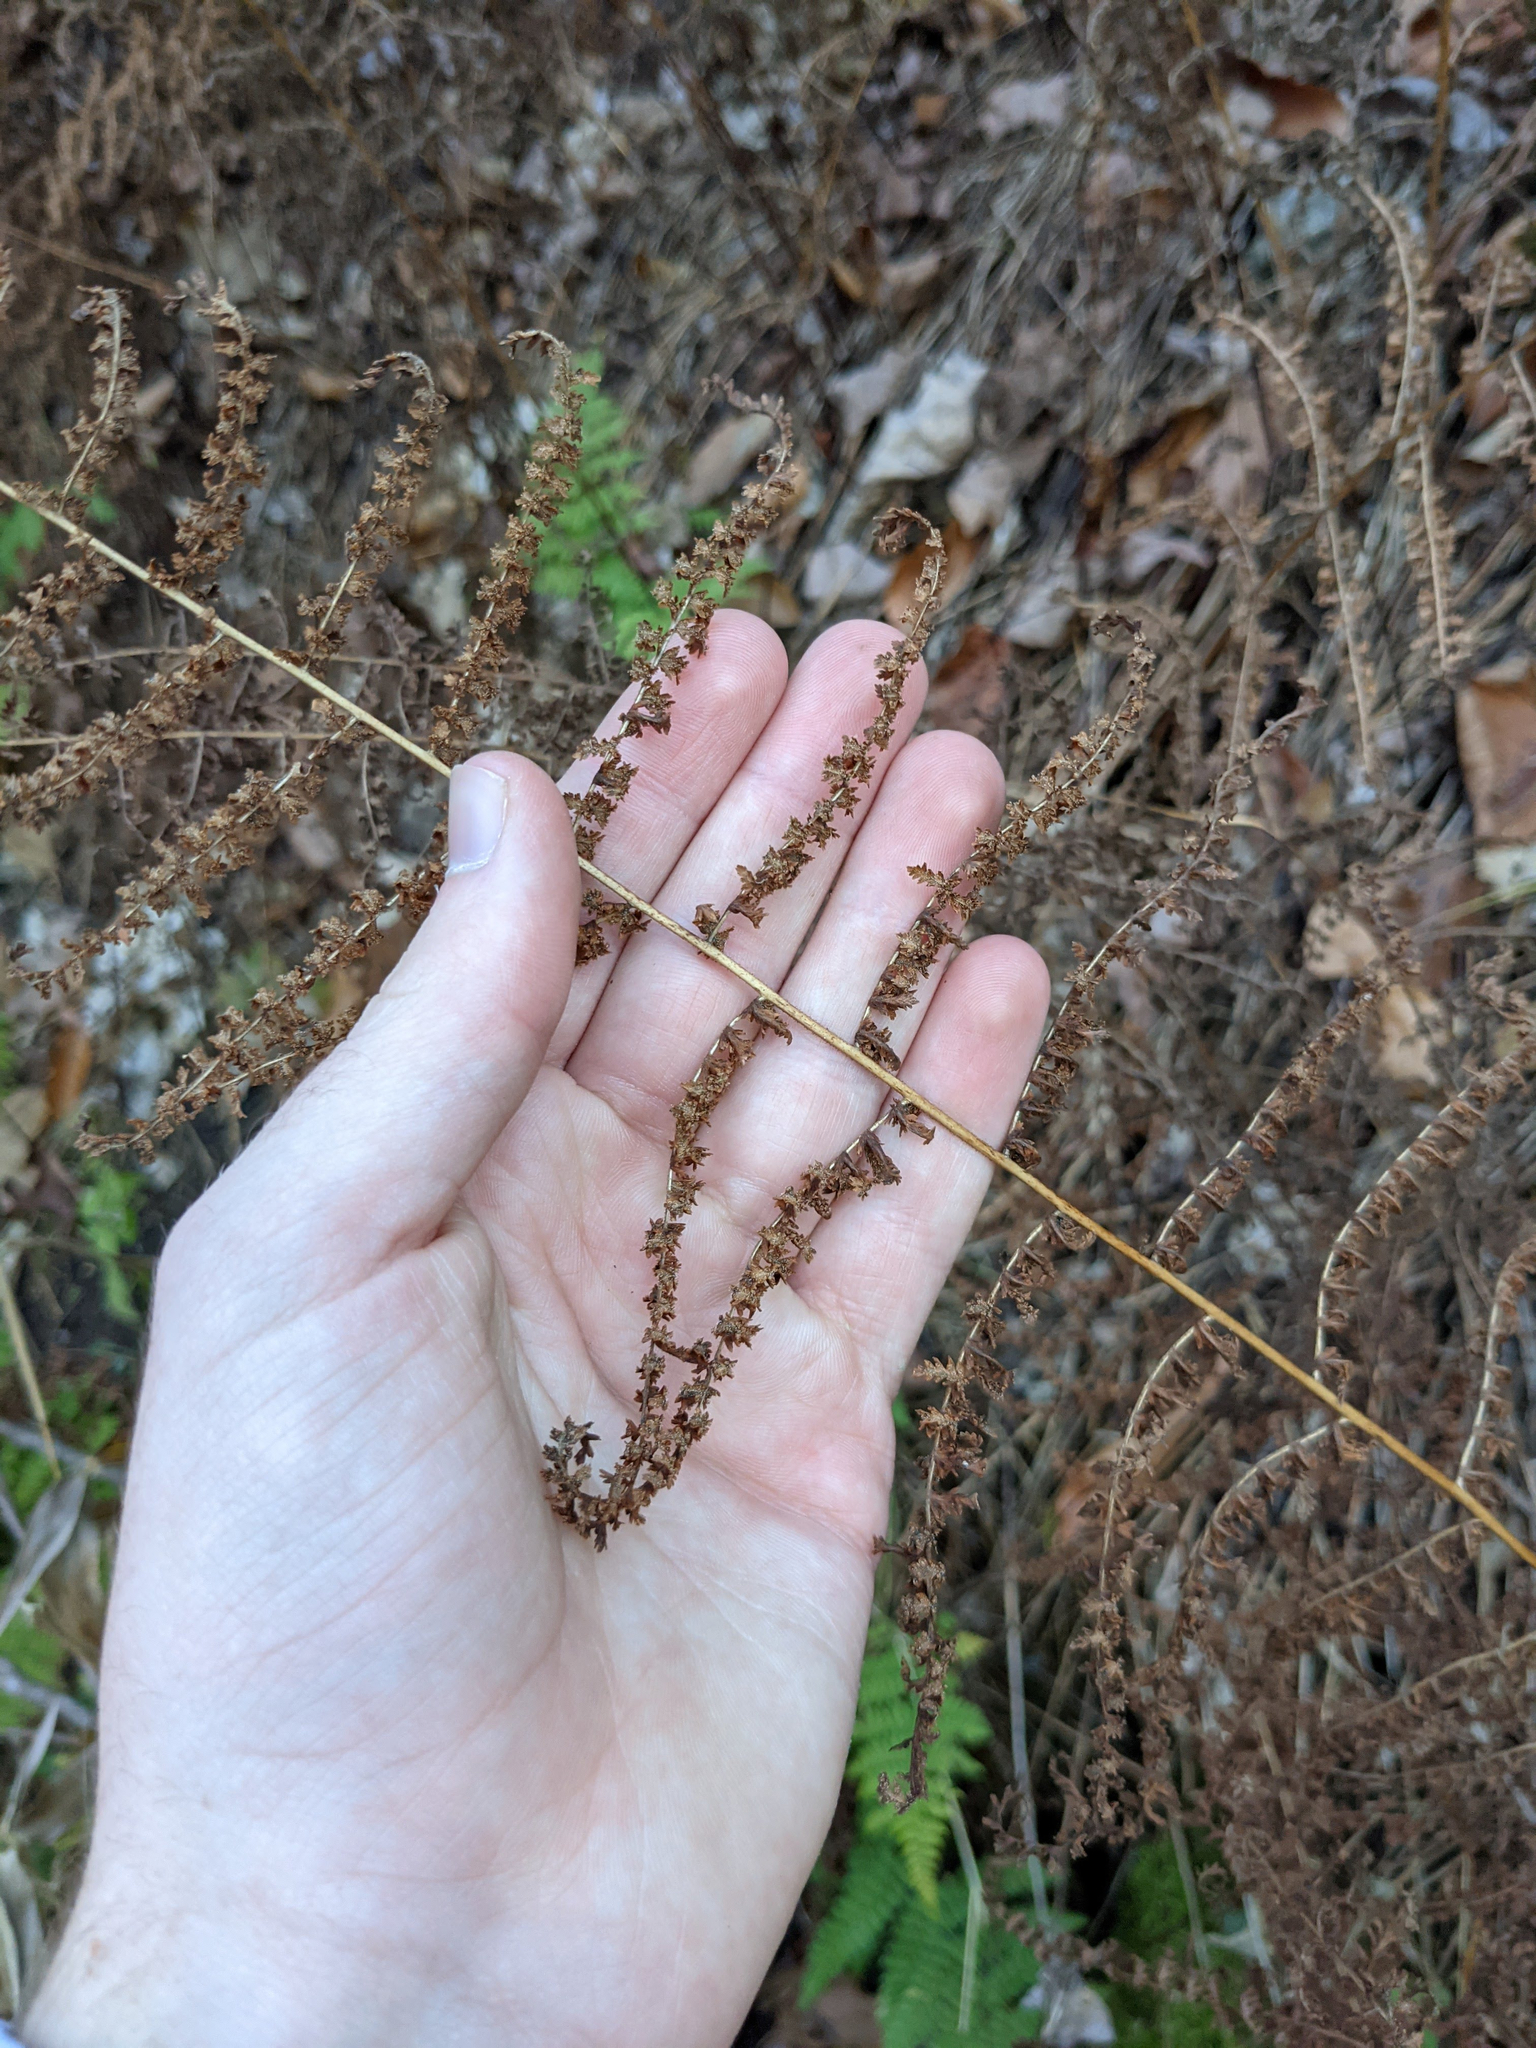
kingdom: Plantae
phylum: Tracheophyta
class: Polypodiopsida
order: Polypodiales
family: Dennstaedtiaceae
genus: Sitobolium
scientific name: Sitobolium punctilobum
